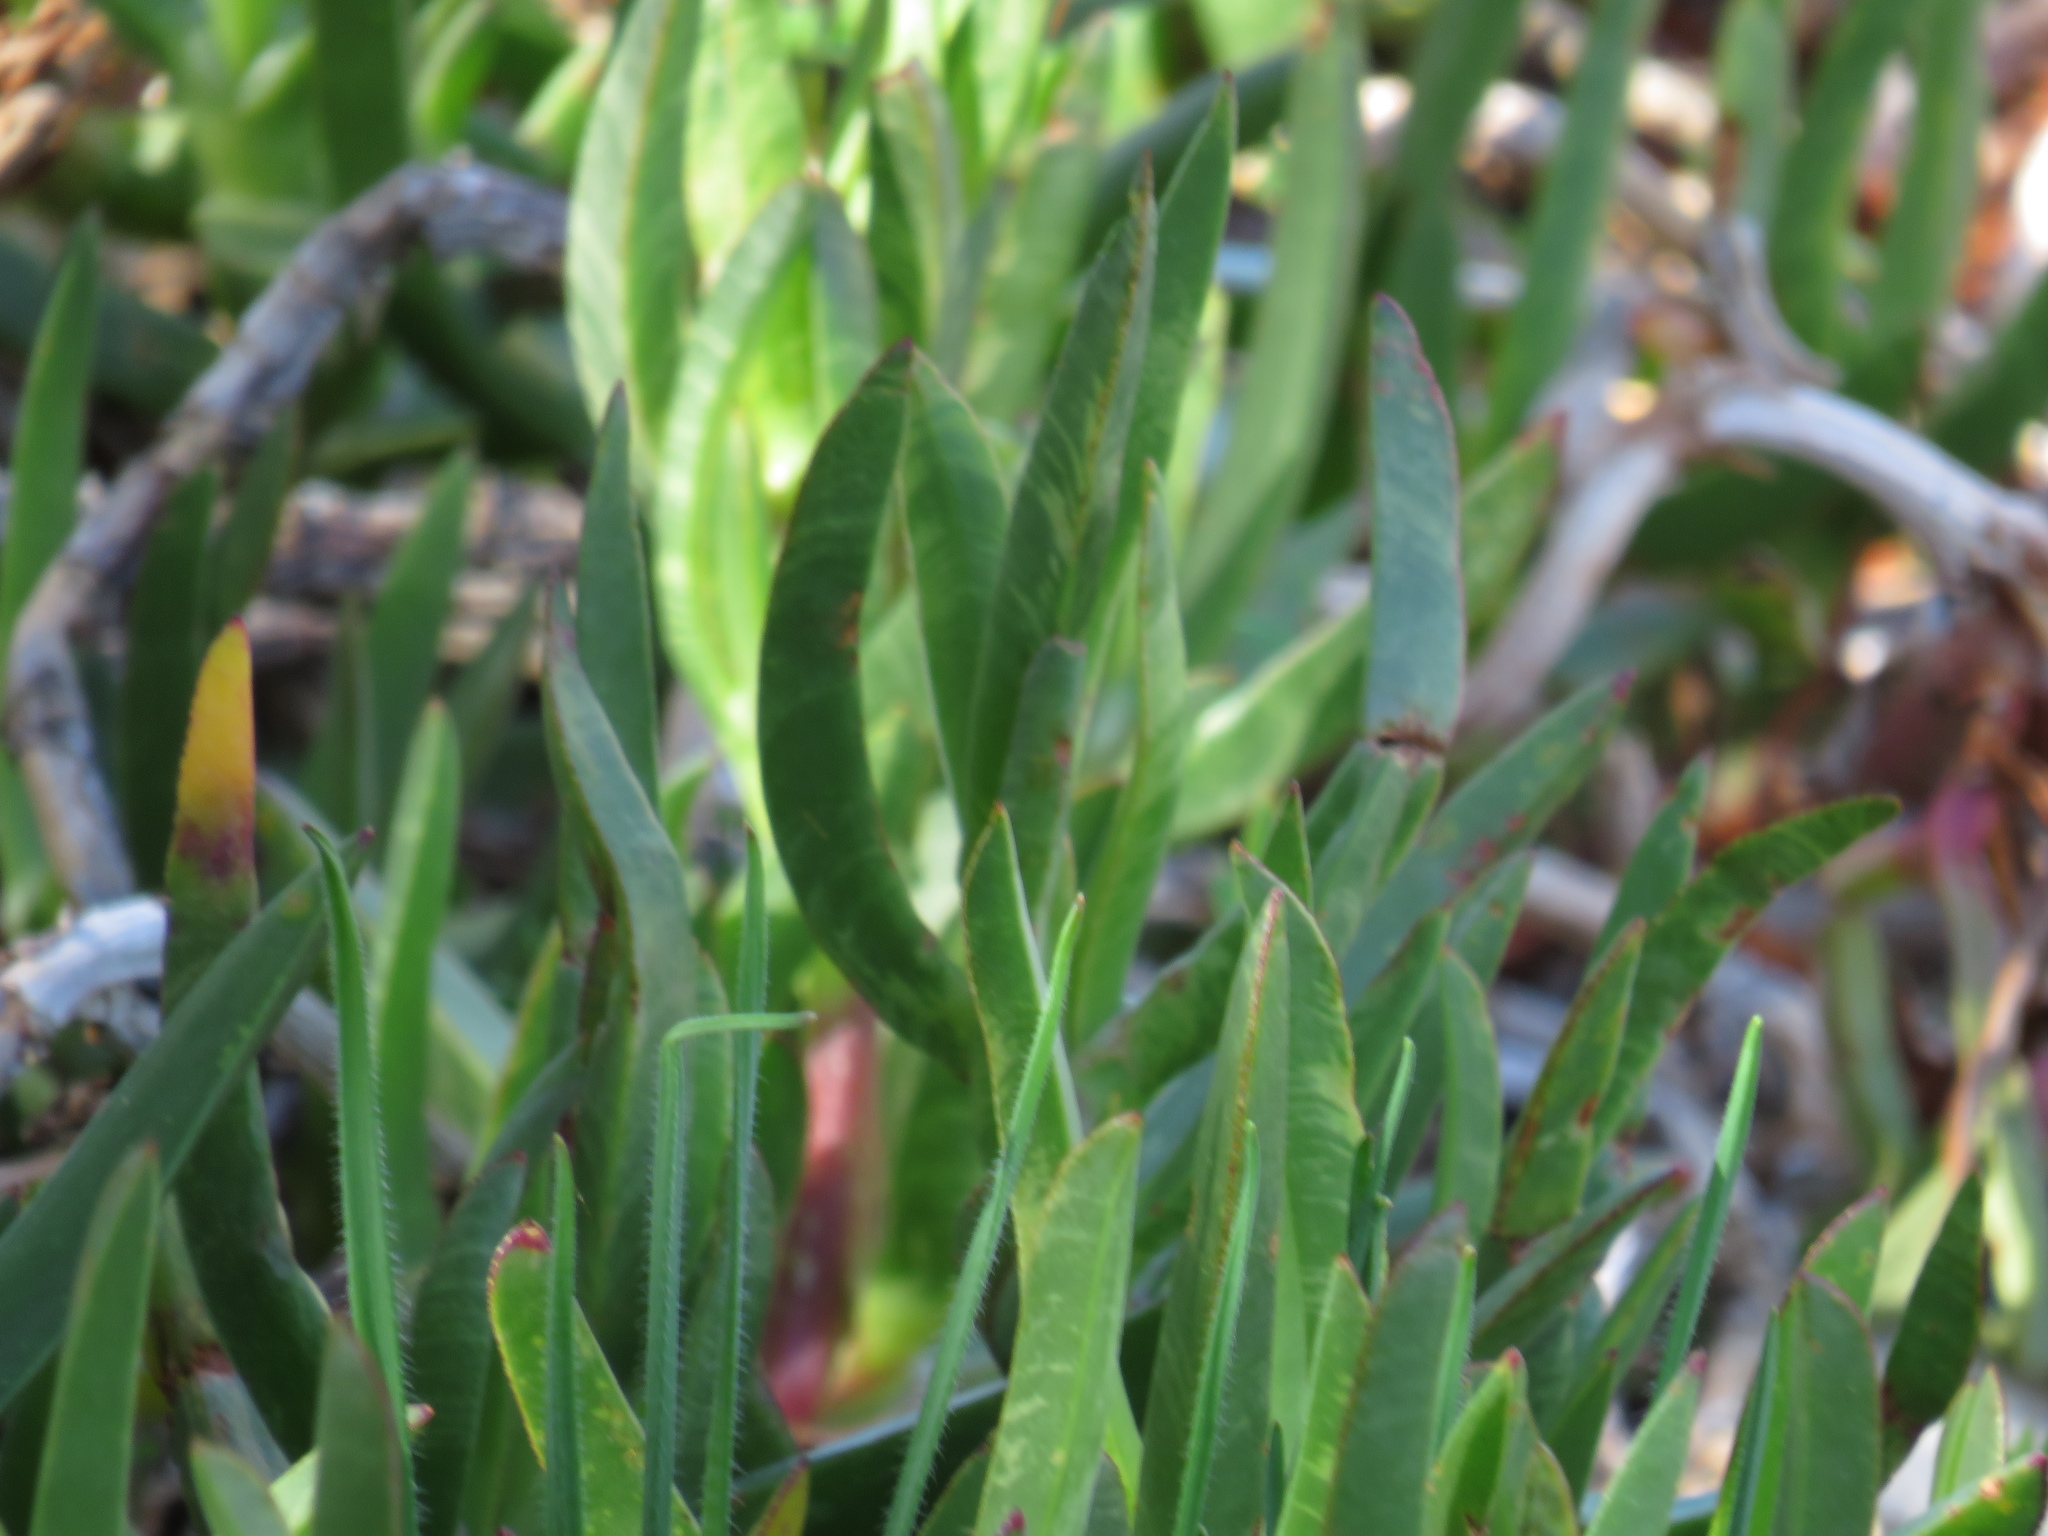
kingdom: Plantae
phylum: Tracheophyta
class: Magnoliopsida
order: Caryophyllales
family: Aizoaceae
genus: Carpobrotus
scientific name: Carpobrotus edulis
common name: Hottentot-fig
